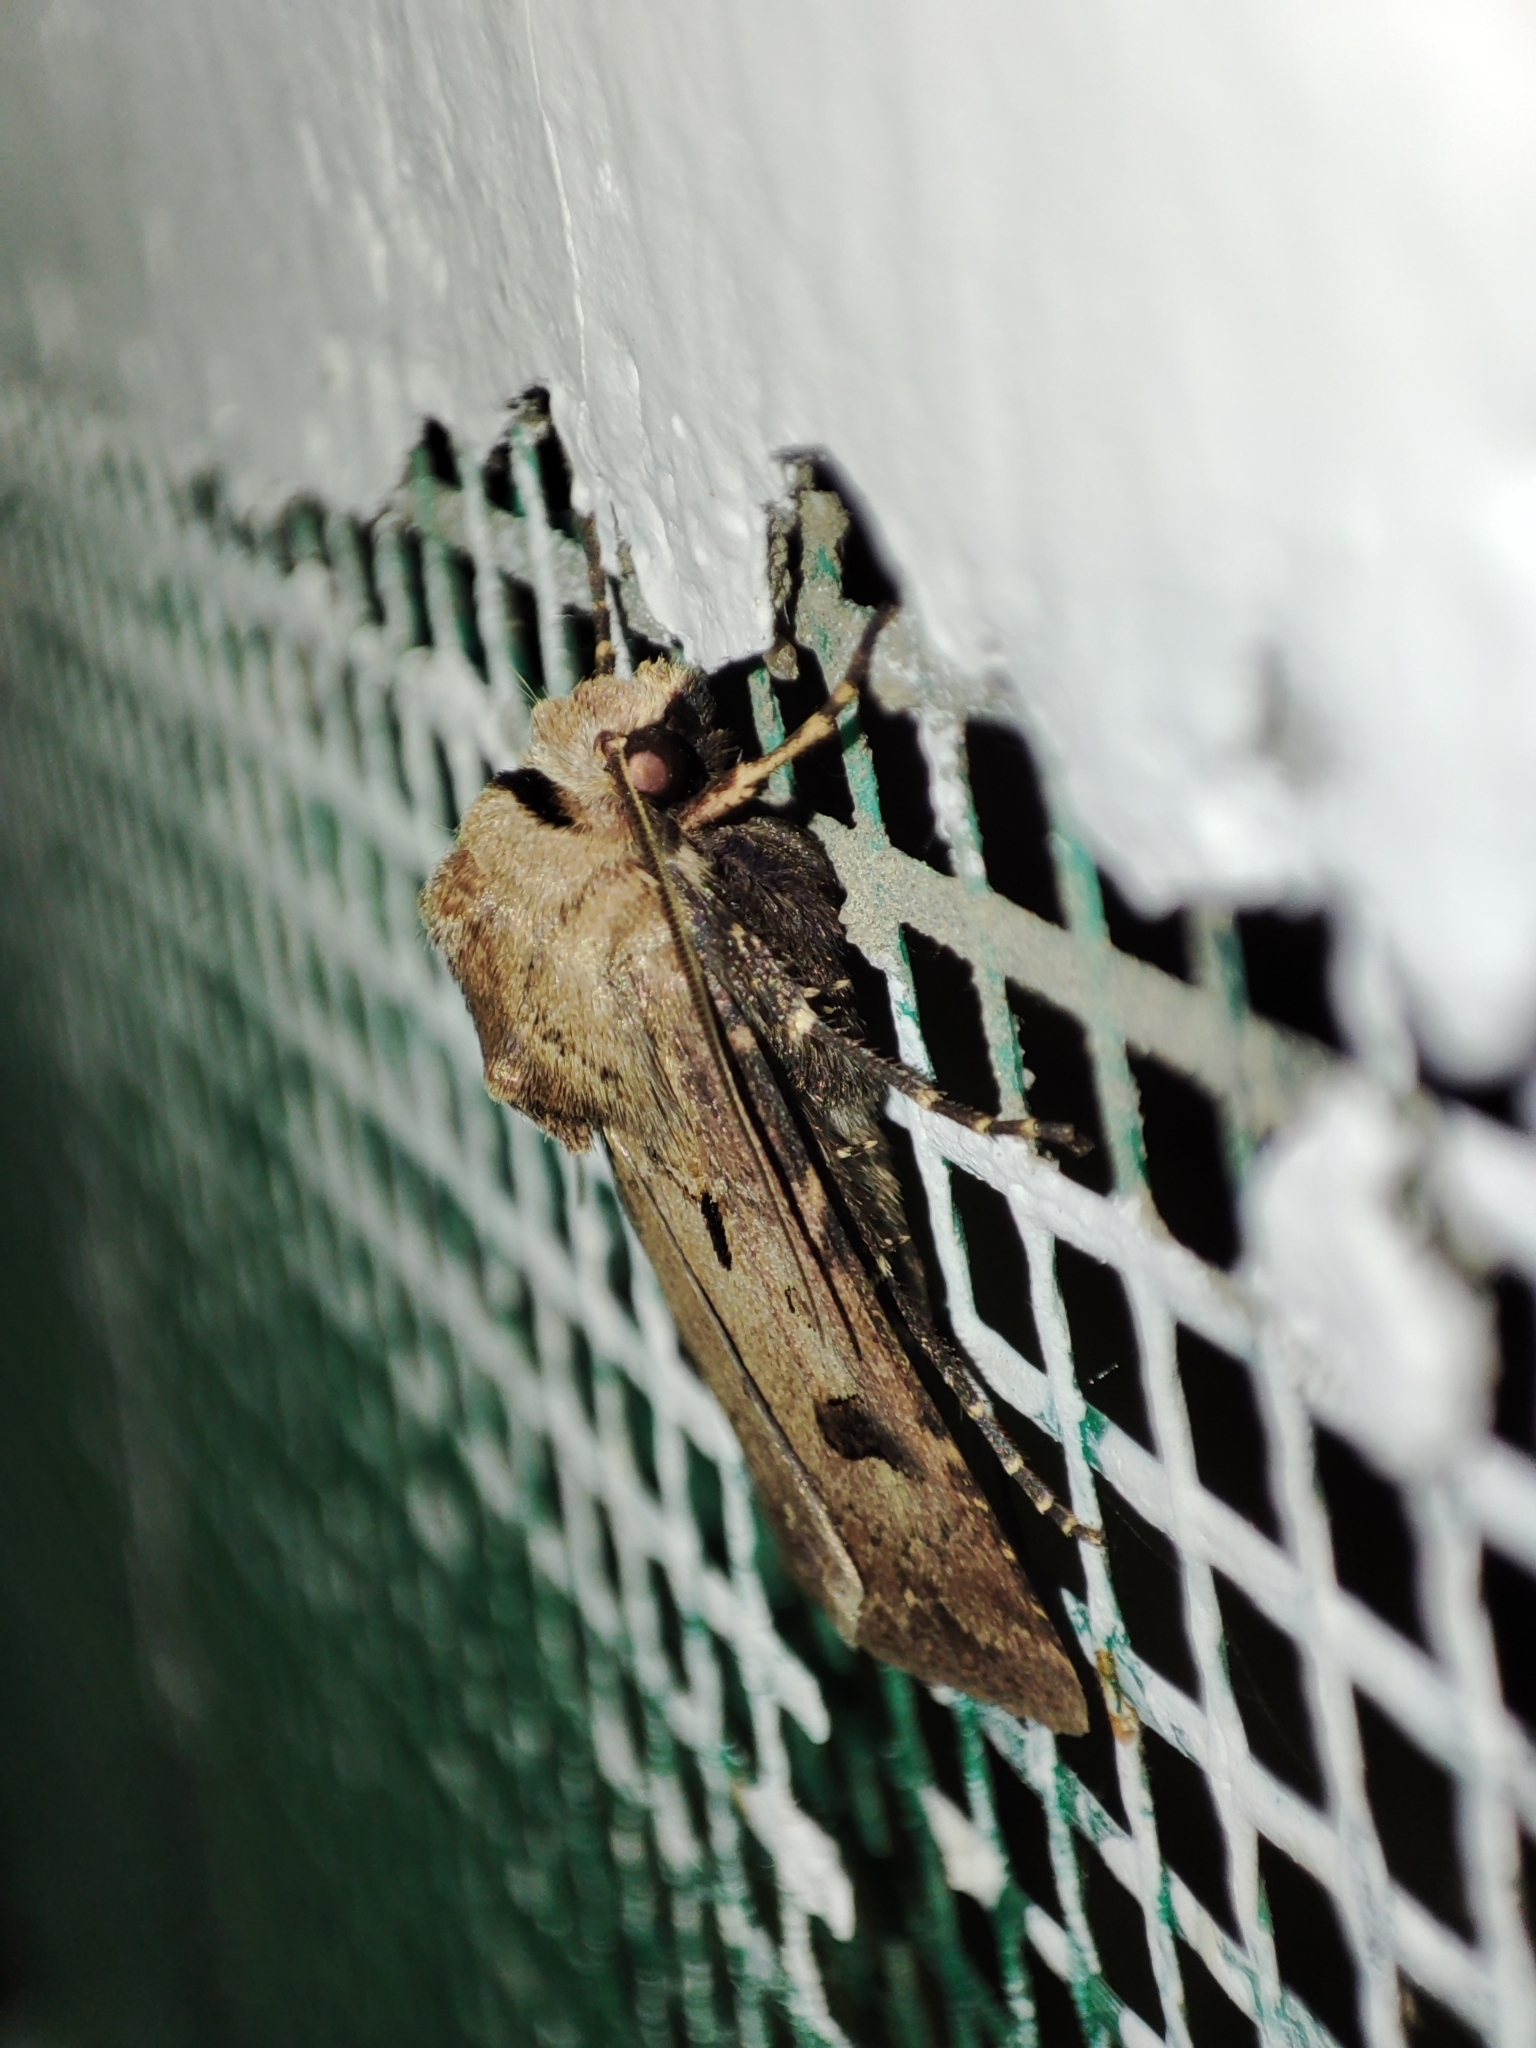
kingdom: Animalia
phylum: Arthropoda
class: Insecta
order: Lepidoptera
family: Noctuidae
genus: Agrotis
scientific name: Agrotis exclamationis
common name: Heart and dart
